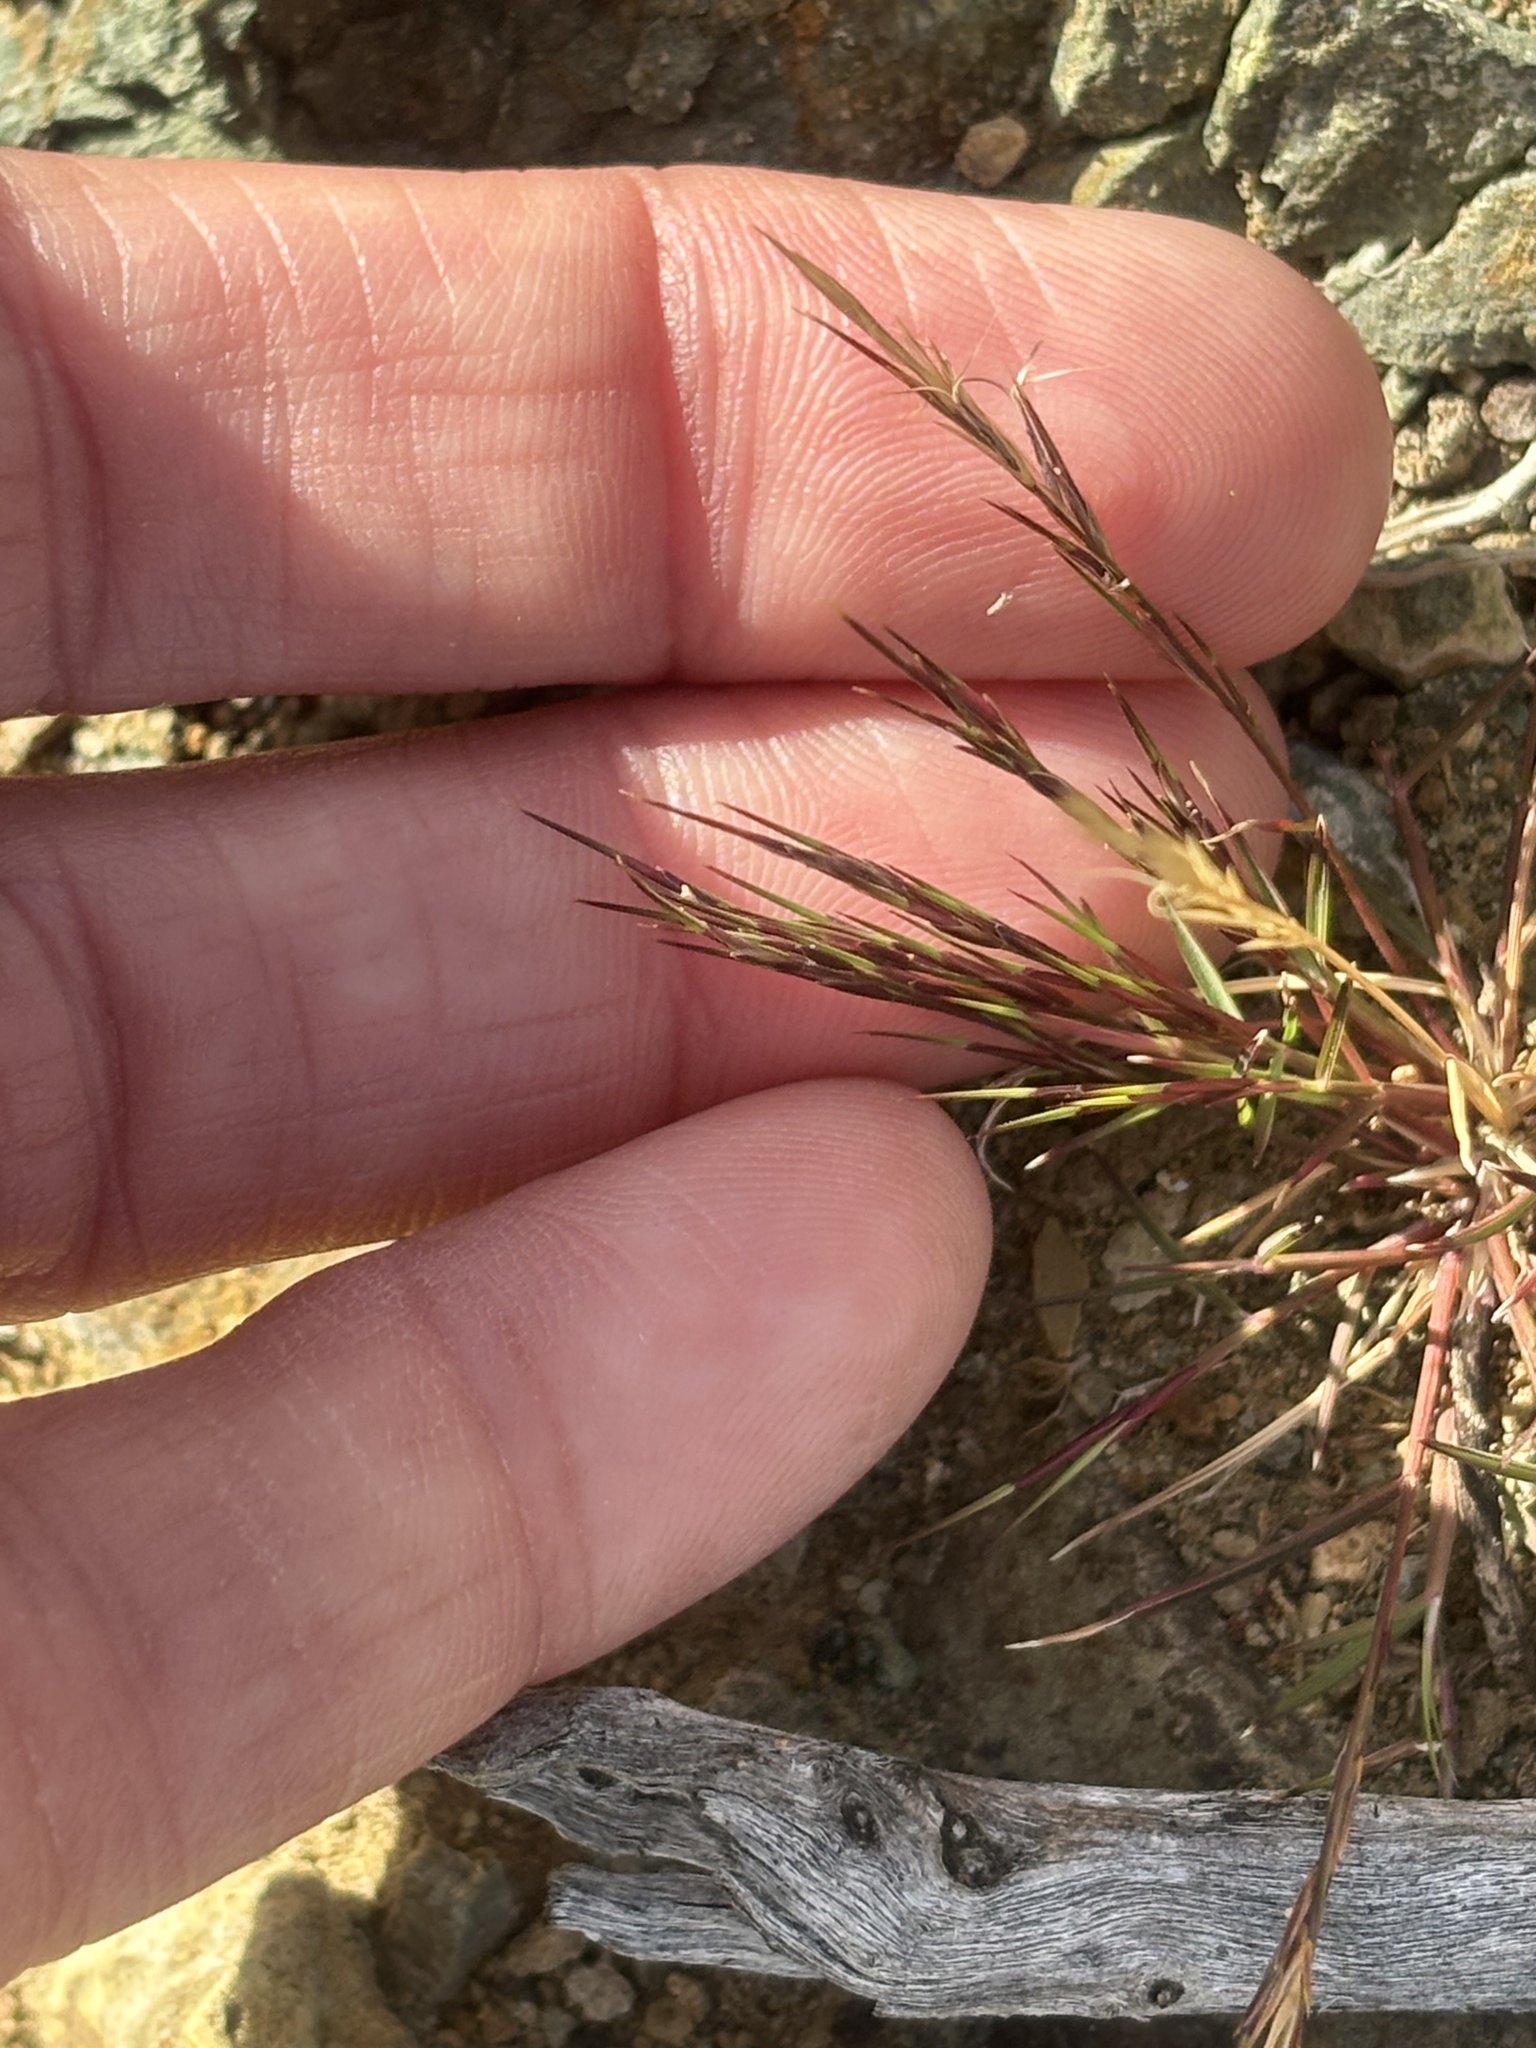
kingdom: Plantae
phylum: Tracheophyta
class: Liliopsida
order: Poales
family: Poaceae
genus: Aristida
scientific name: Aristida adscensionis
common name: Sixweeks threeawn
